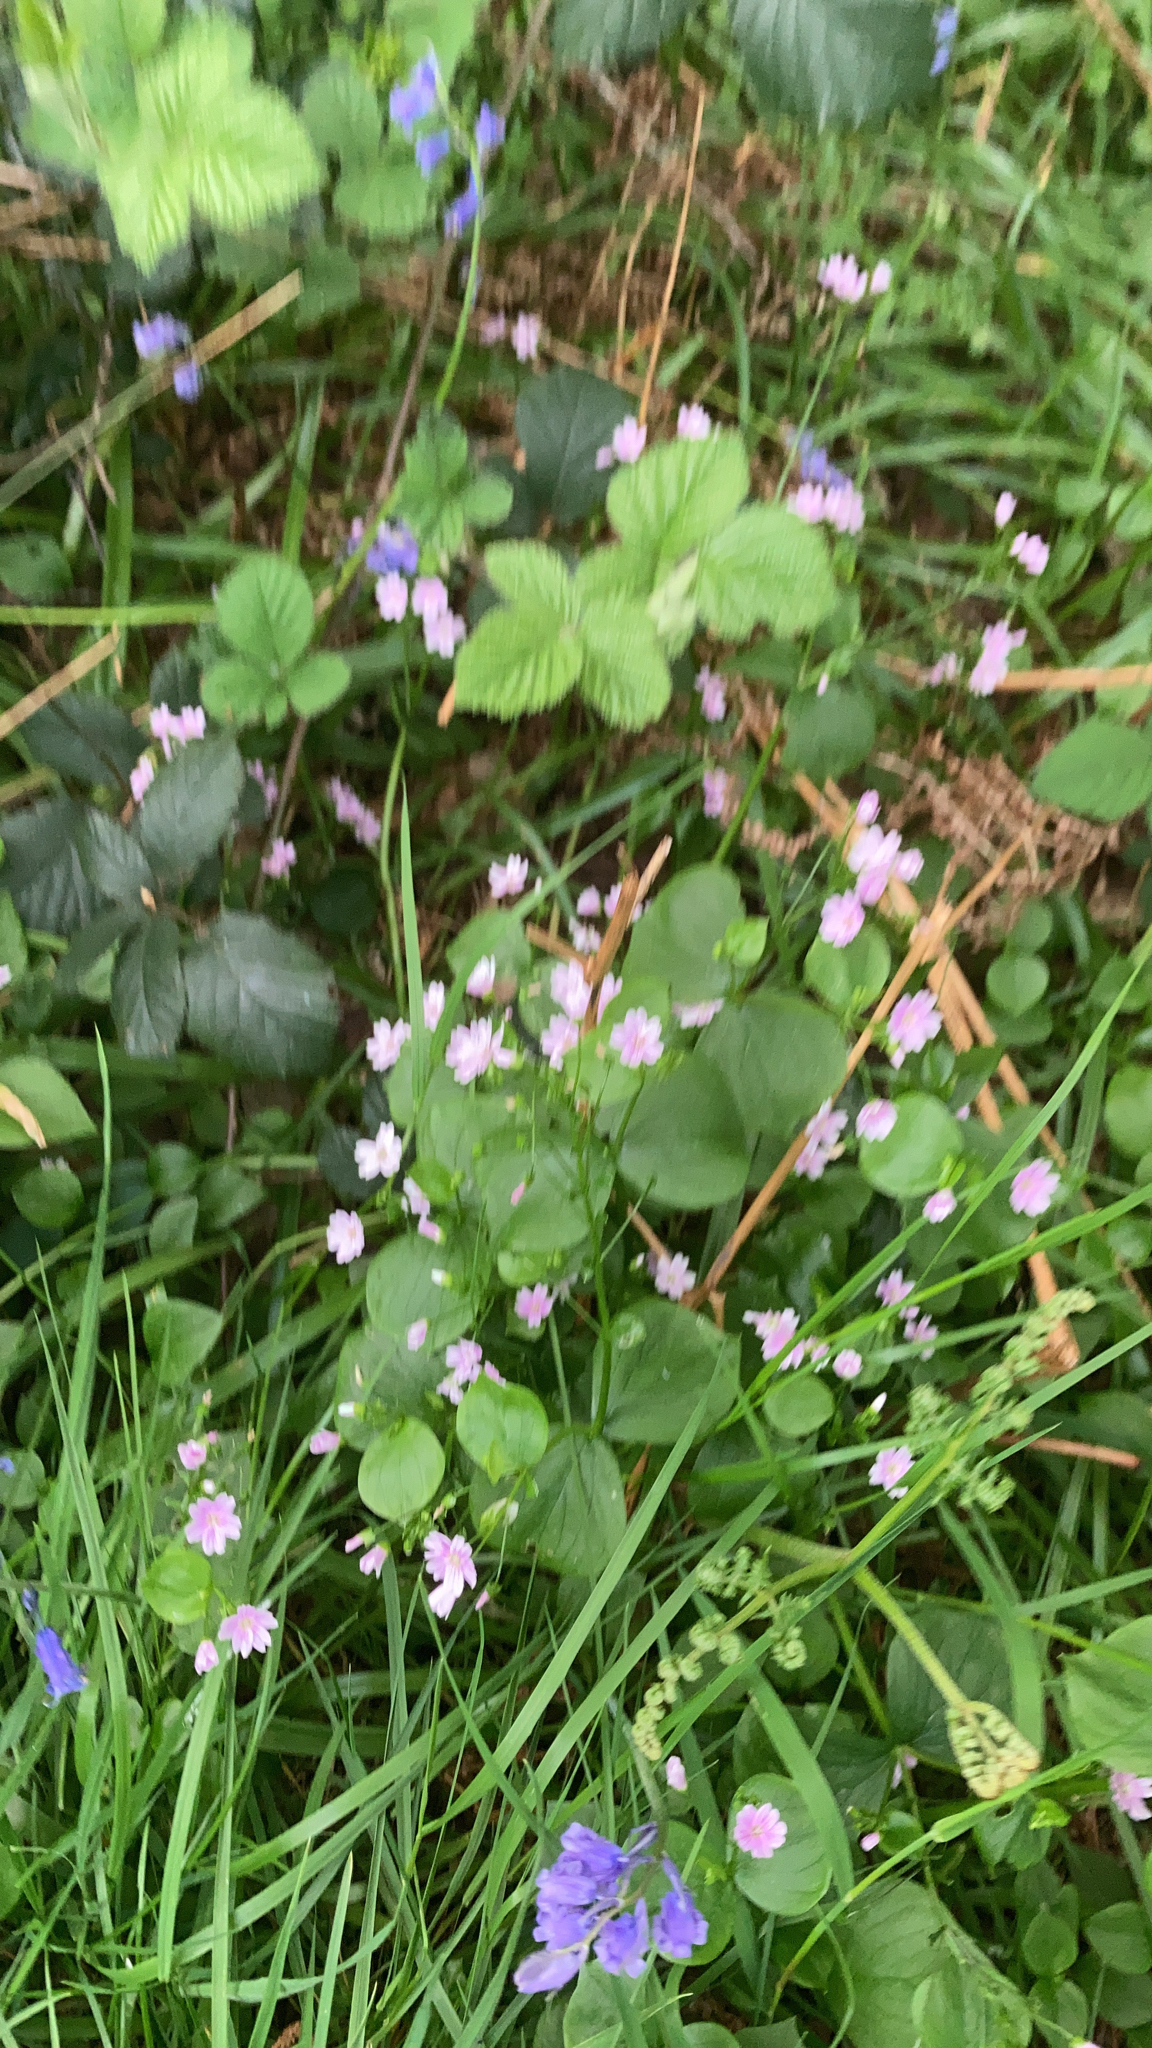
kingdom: Plantae
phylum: Tracheophyta
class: Magnoliopsida
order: Caryophyllales
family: Montiaceae
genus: Claytonia
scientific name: Claytonia sibirica
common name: Pink purslane
